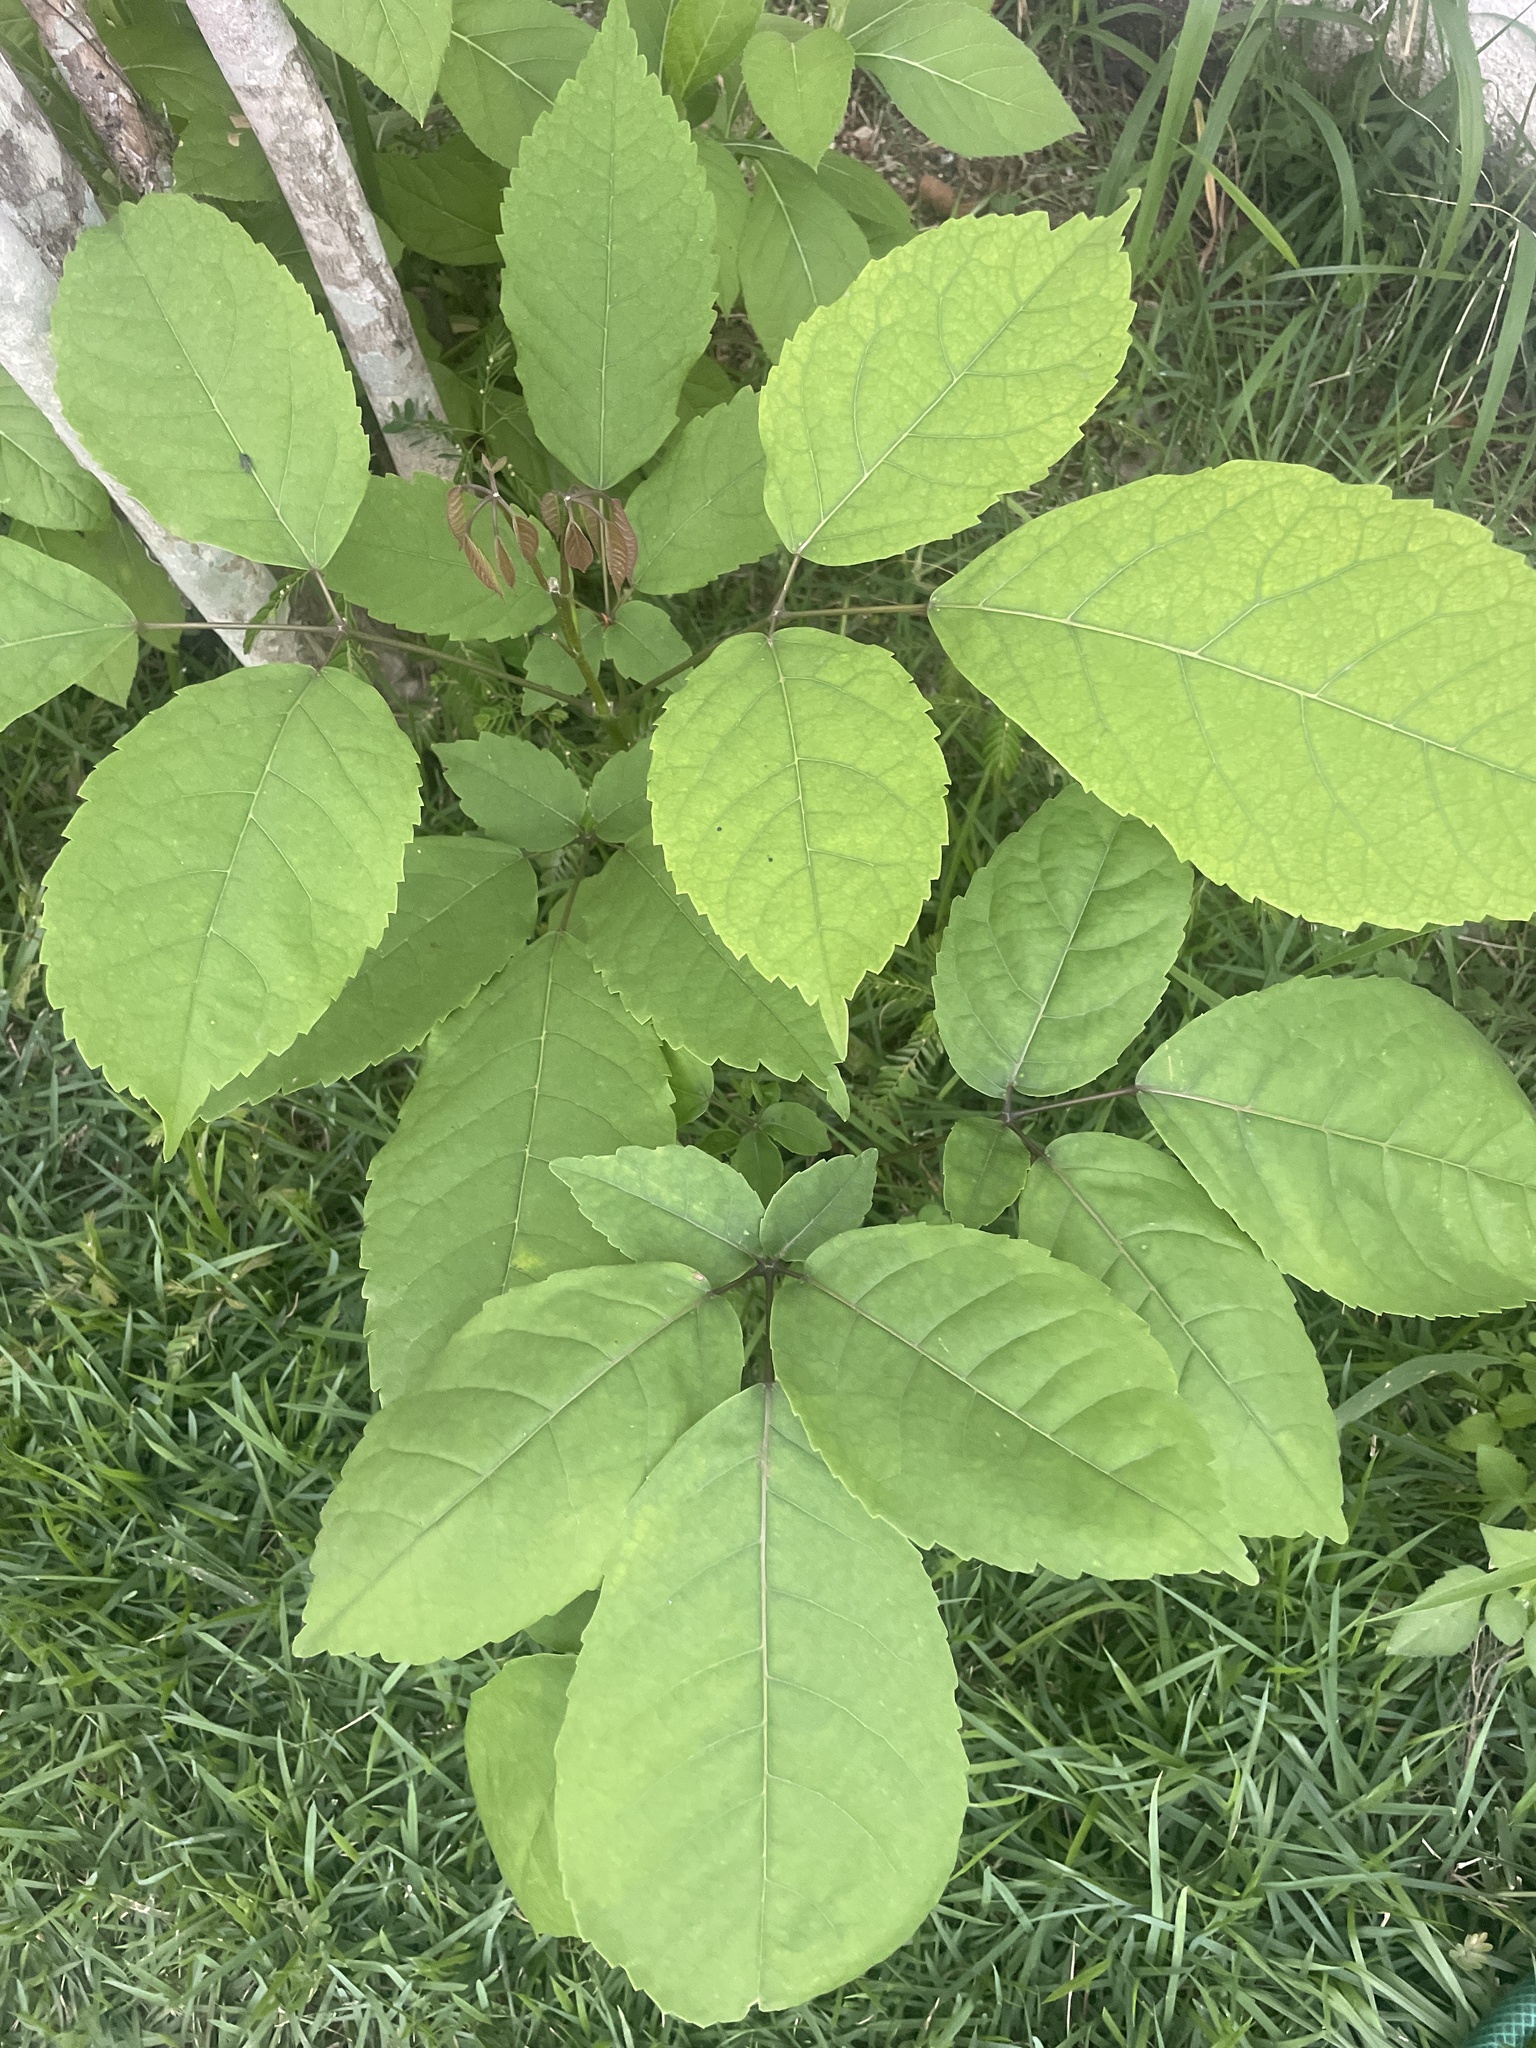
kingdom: Plantae
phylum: Tracheophyta
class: Magnoliopsida
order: Lamiales
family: Bignoniaceae
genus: Handroanthus
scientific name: Handroanthus impetiginosum
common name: Pink trumpet tree
